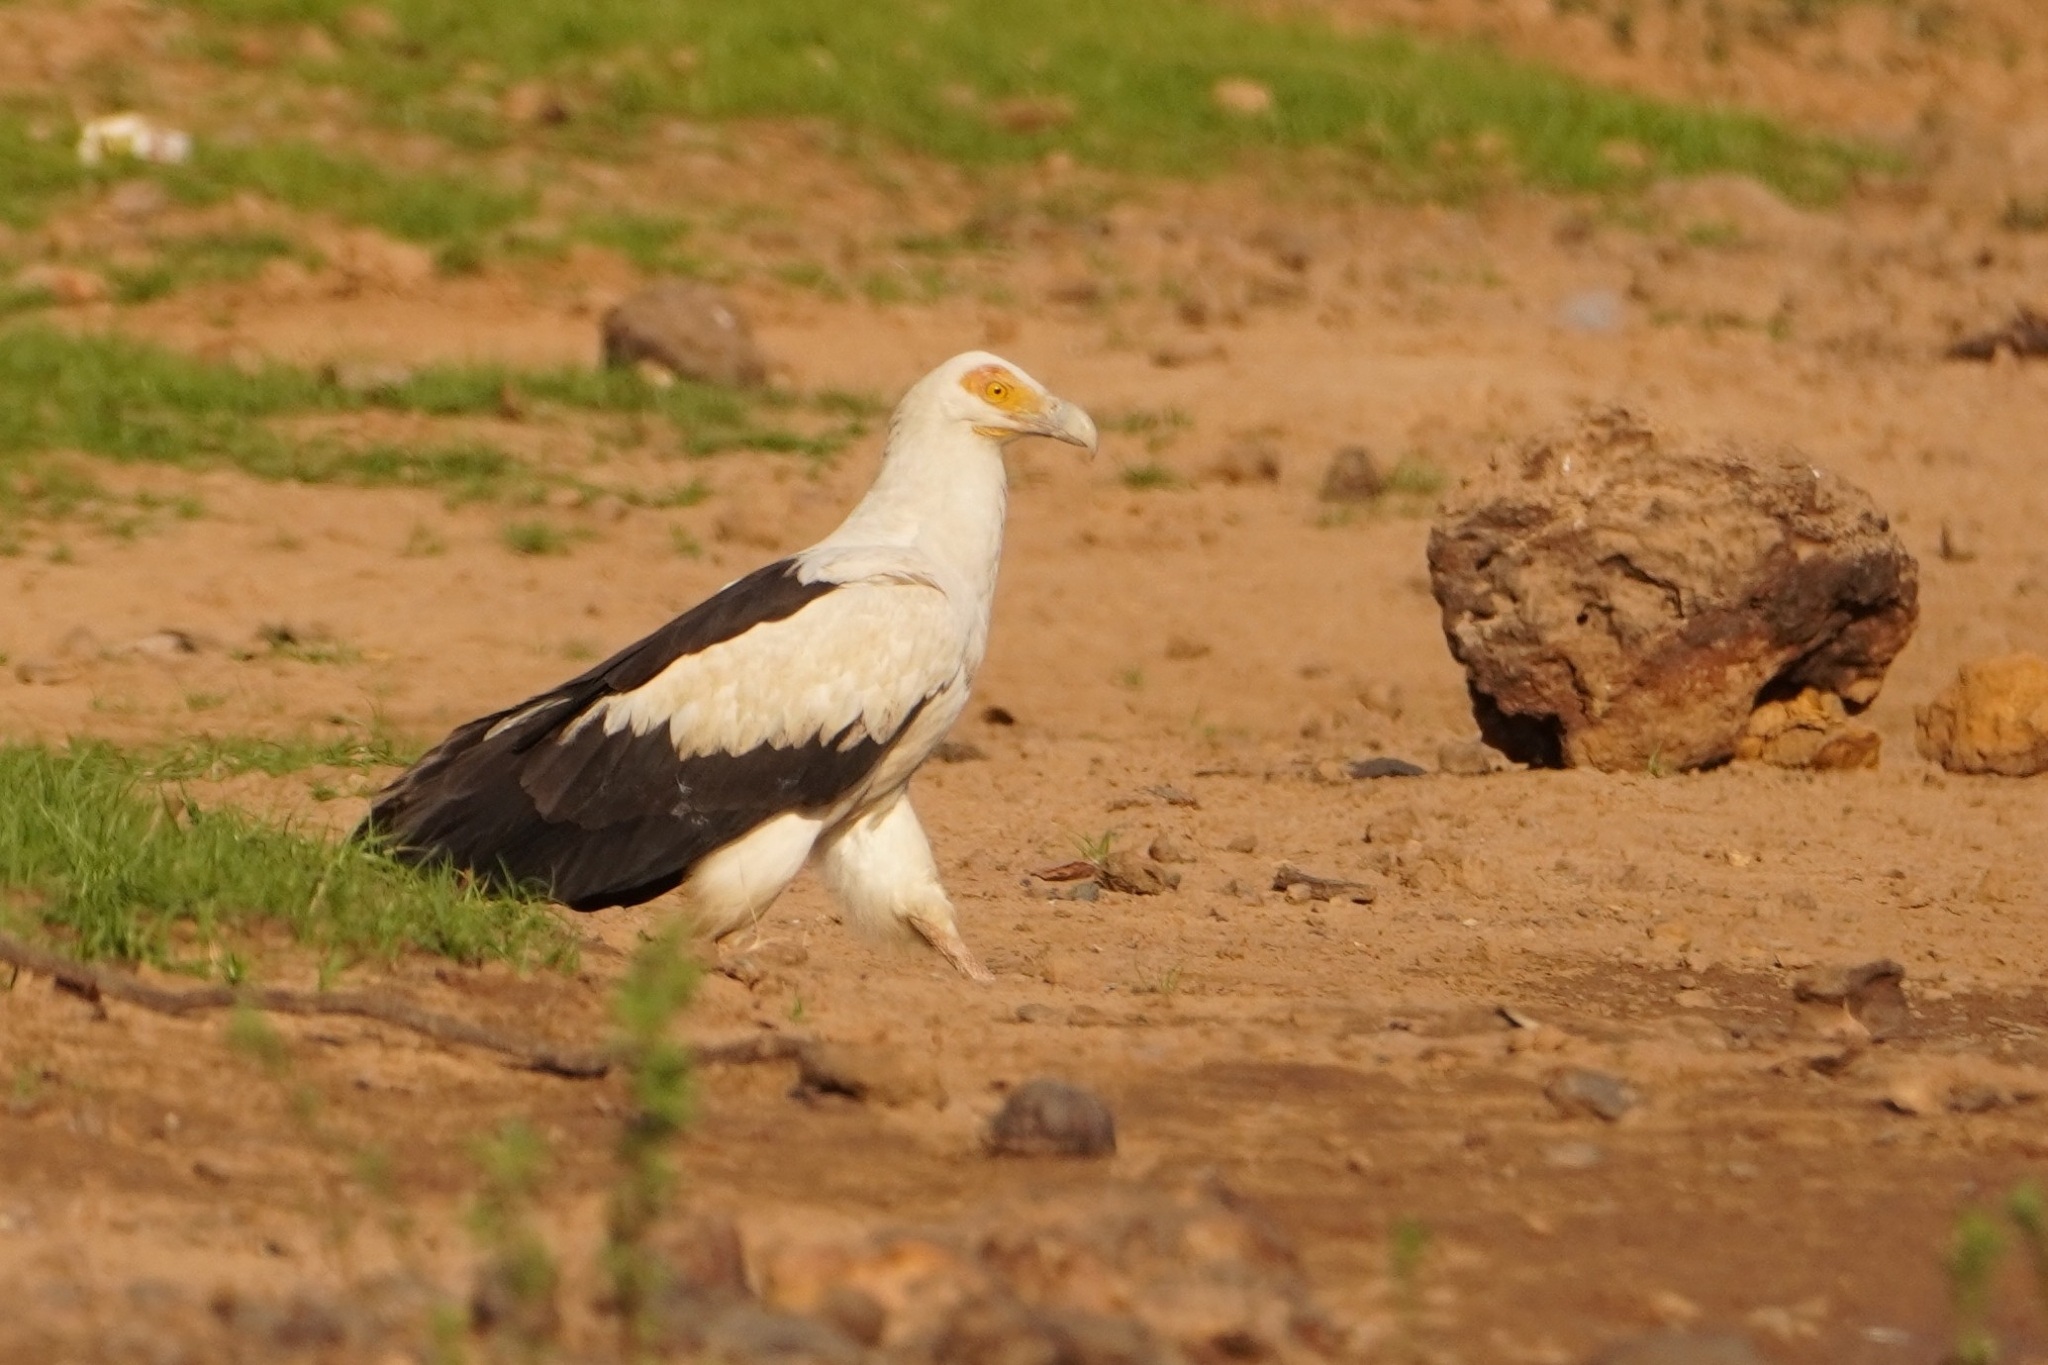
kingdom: Animalia
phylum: Chordata
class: Aves
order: Accipitriformes
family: Accipitridae
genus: Gypohierax
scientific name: Gypohierax angolensis
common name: Palm-nut vulture
